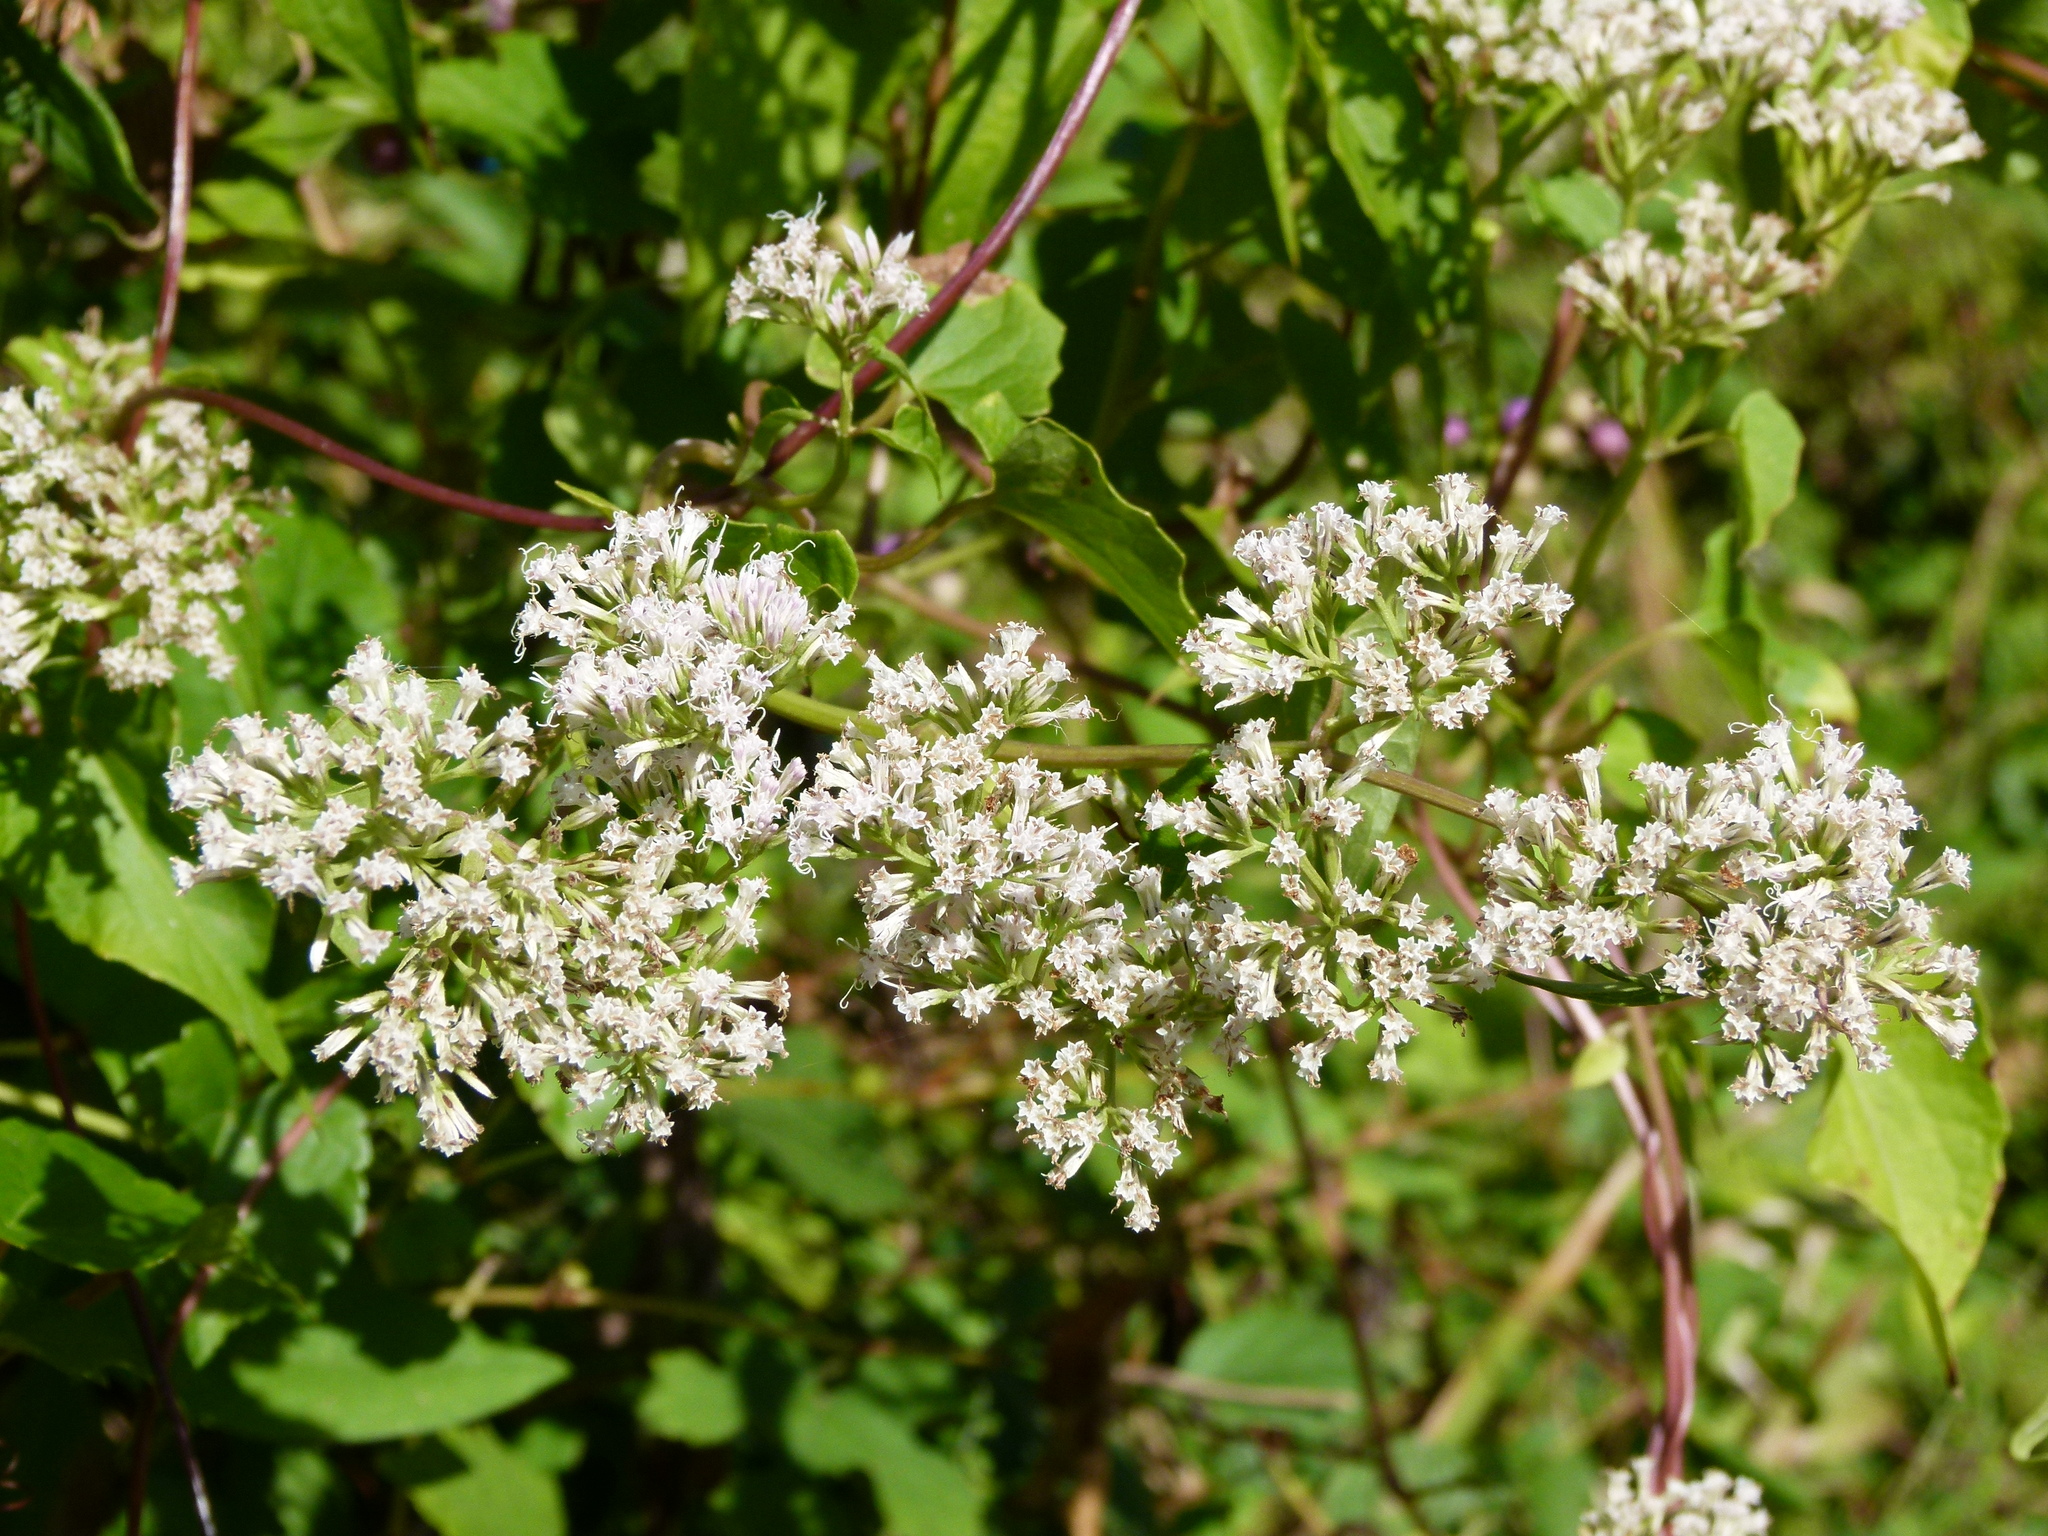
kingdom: Plantae
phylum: Tracheophyta
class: Magnoliopsida
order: Asterales
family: Asteraceae
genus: Mikania
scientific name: Mikania scandens
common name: Climbing hempvine
